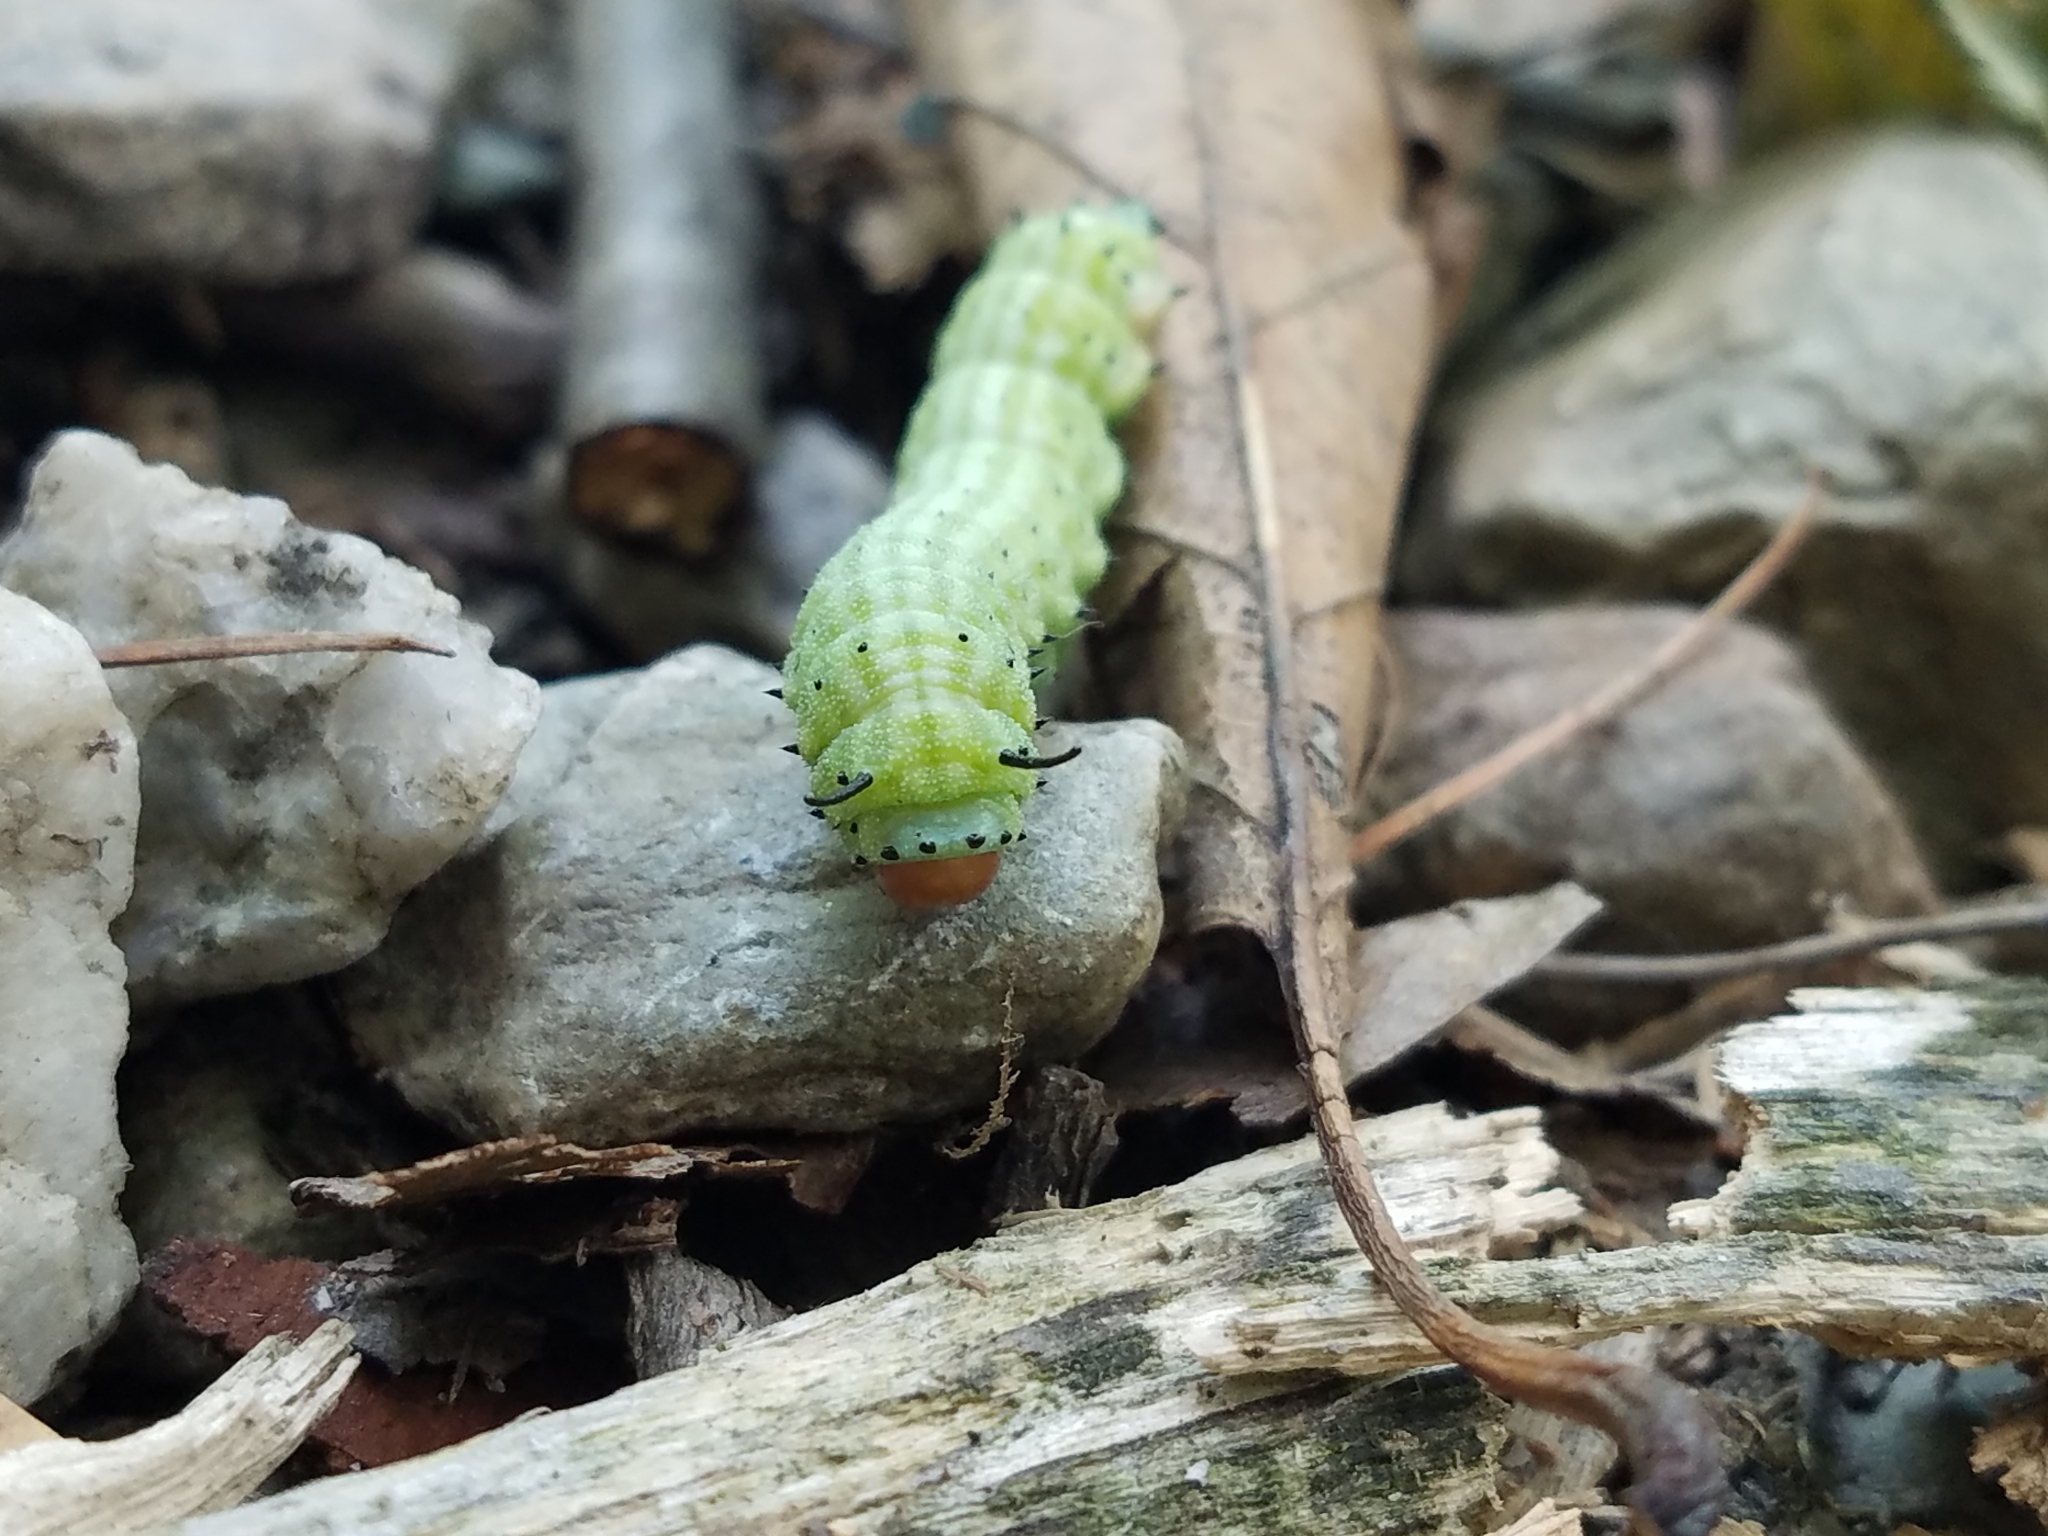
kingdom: Animalia
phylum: Arthropoda
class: Insecta
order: Lepidoptera
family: Saturniidae
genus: Dryocampa
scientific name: Dryocampa rubicunda
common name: Rosy maple moth
